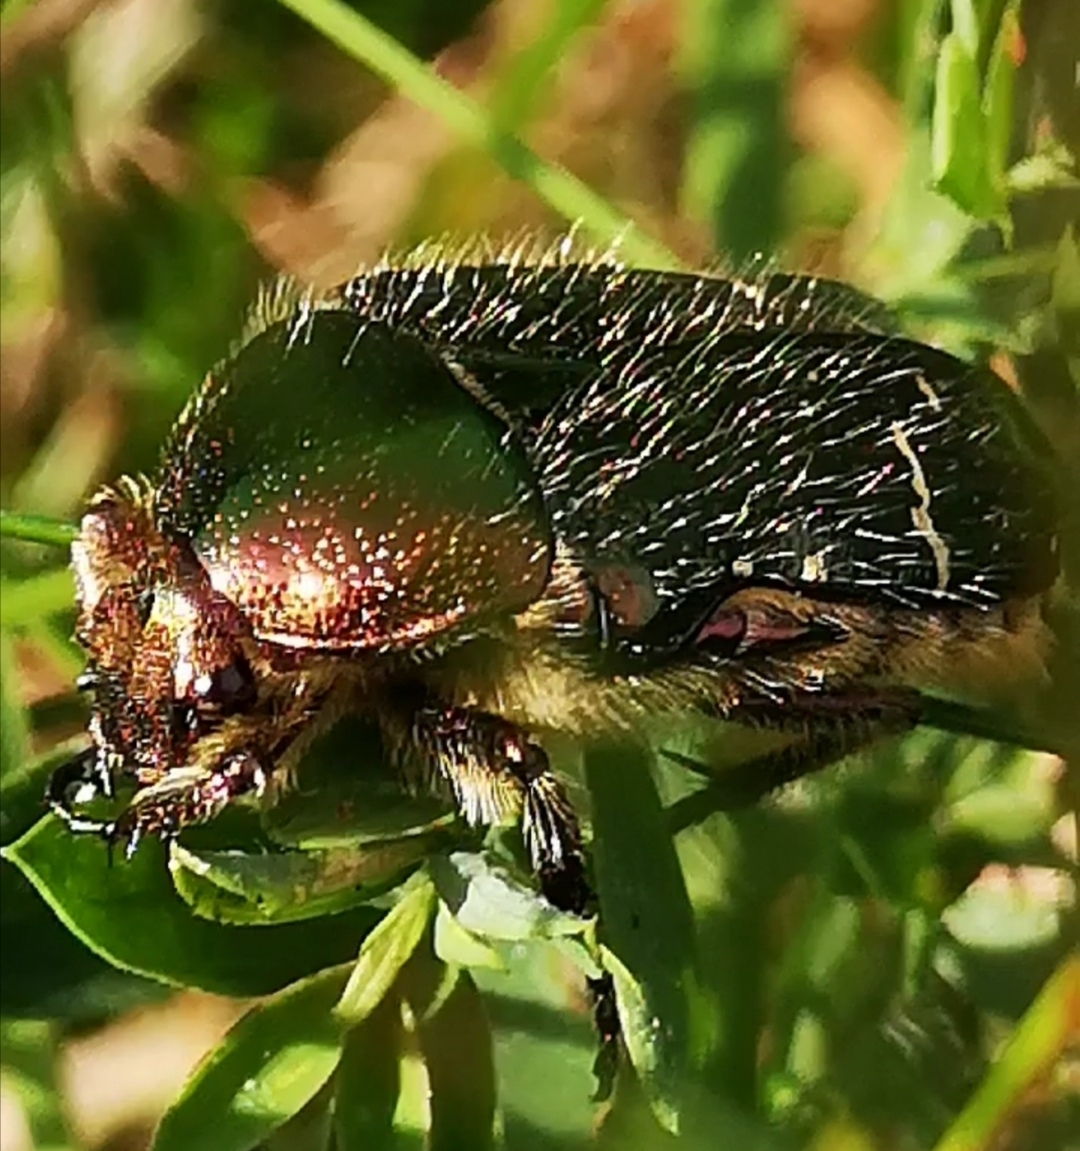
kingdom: Animalia
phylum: Arthropoda
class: Insecta
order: Coleoptera
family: Scarabaeidae
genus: Cetonia
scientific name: Cetonia aurata
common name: Rose chafer
